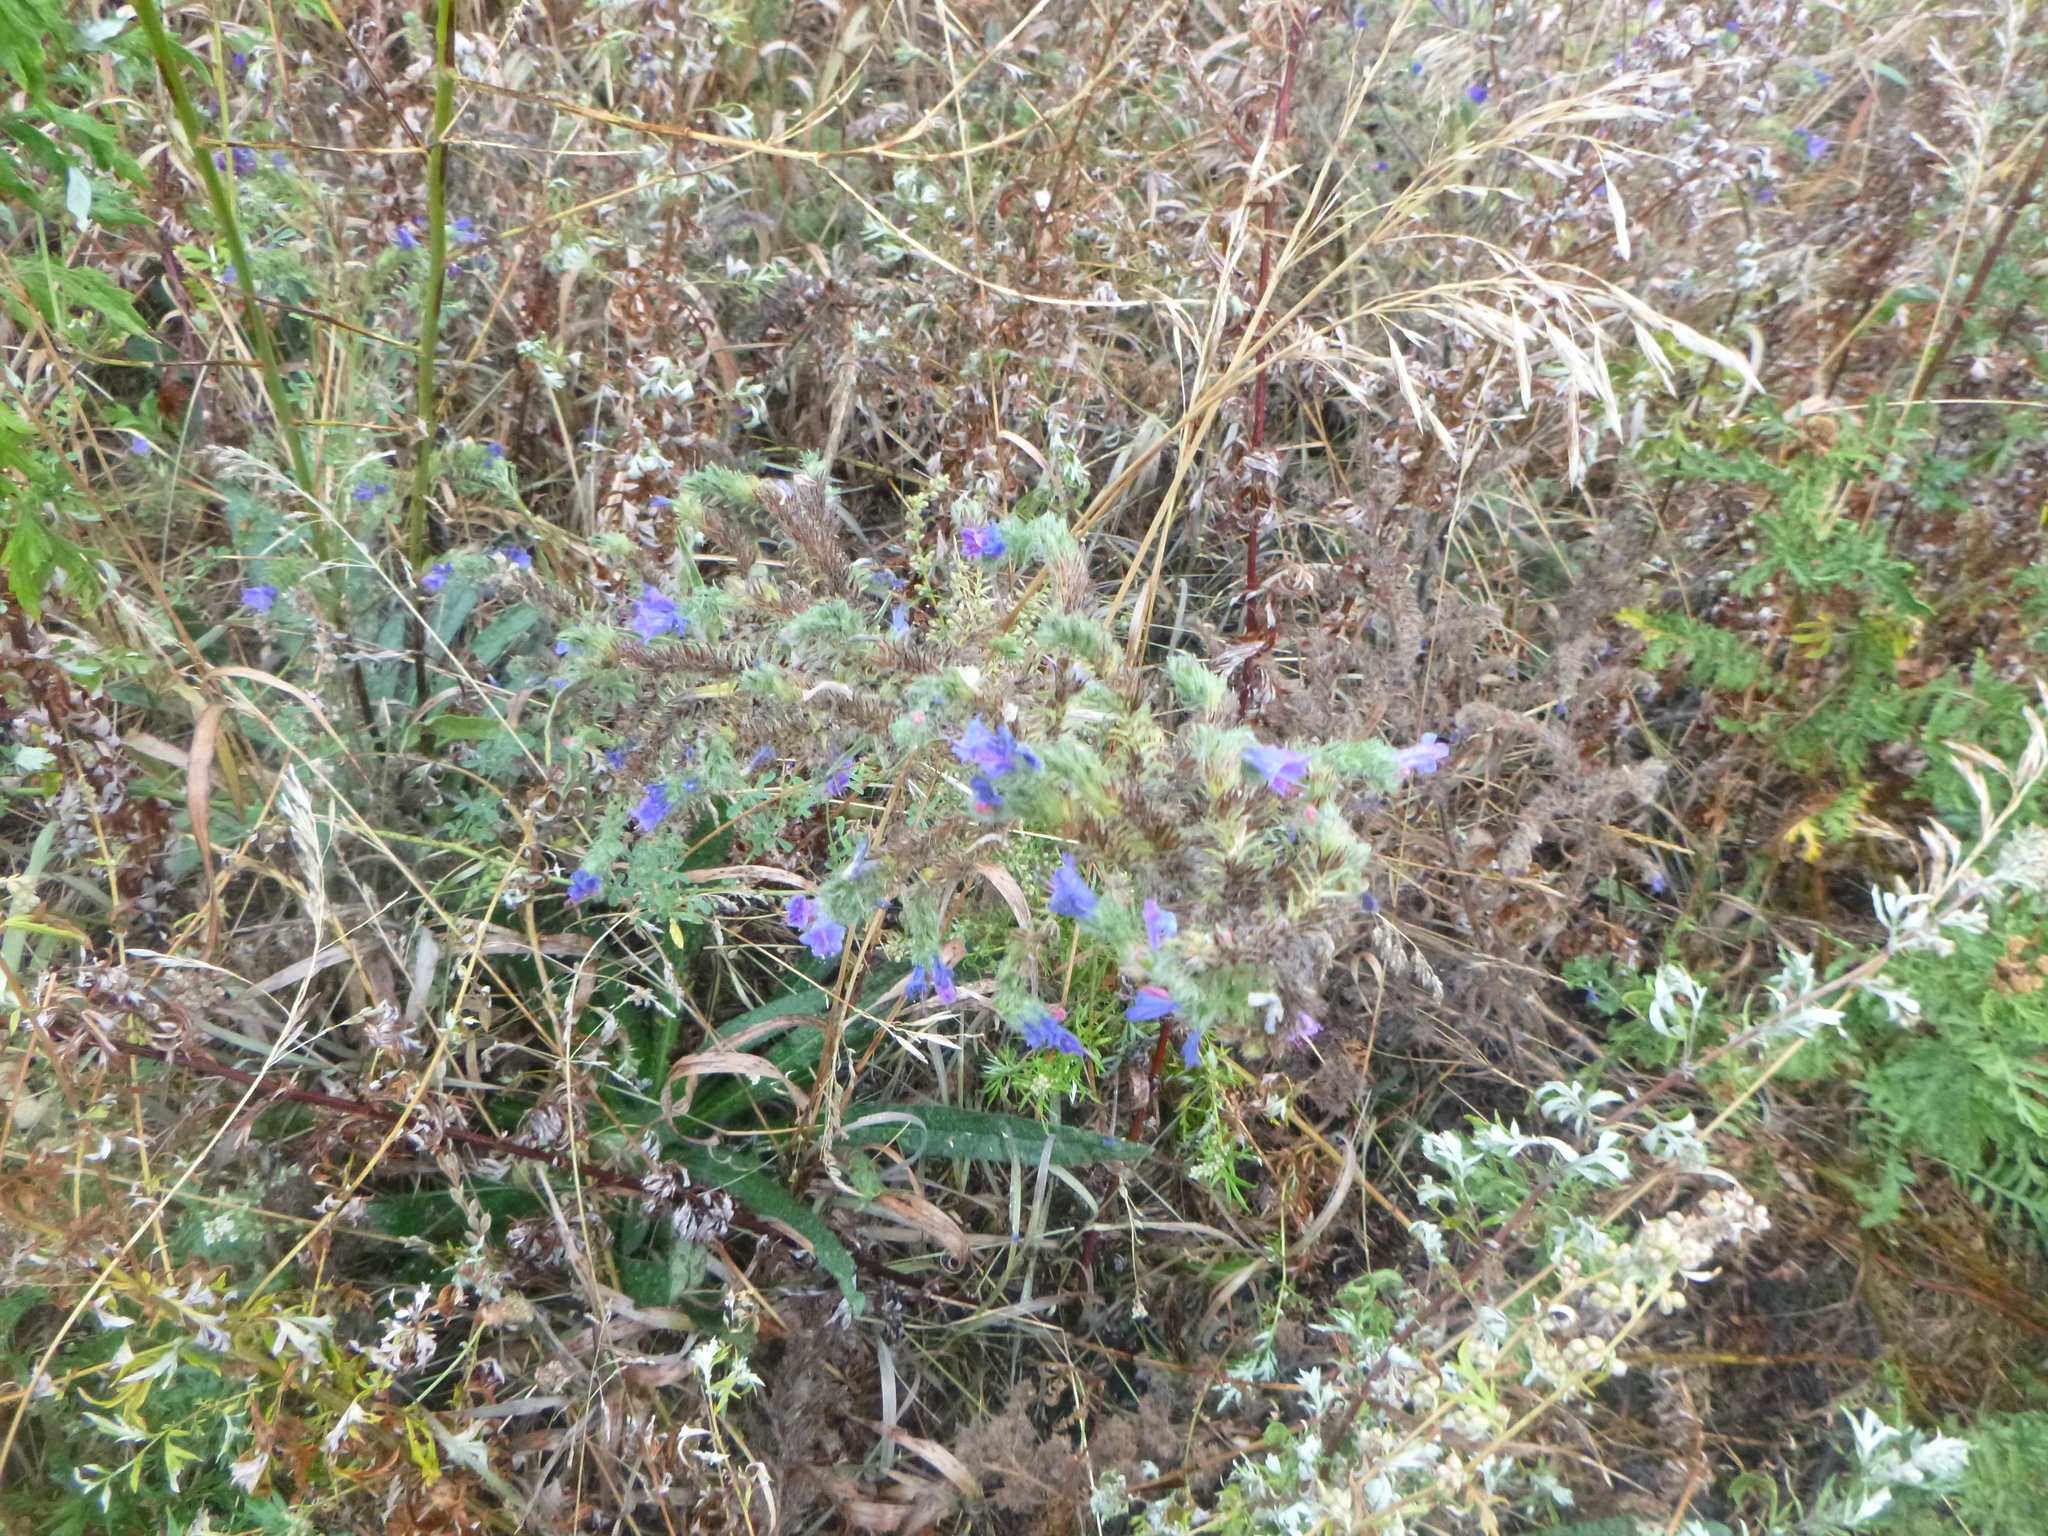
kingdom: Plantae
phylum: Tracheophyta
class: Magnoliopsida
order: Boraginales
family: Boraginaceae
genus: Echium
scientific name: Echium vulgare
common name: Common viper's bugloss
